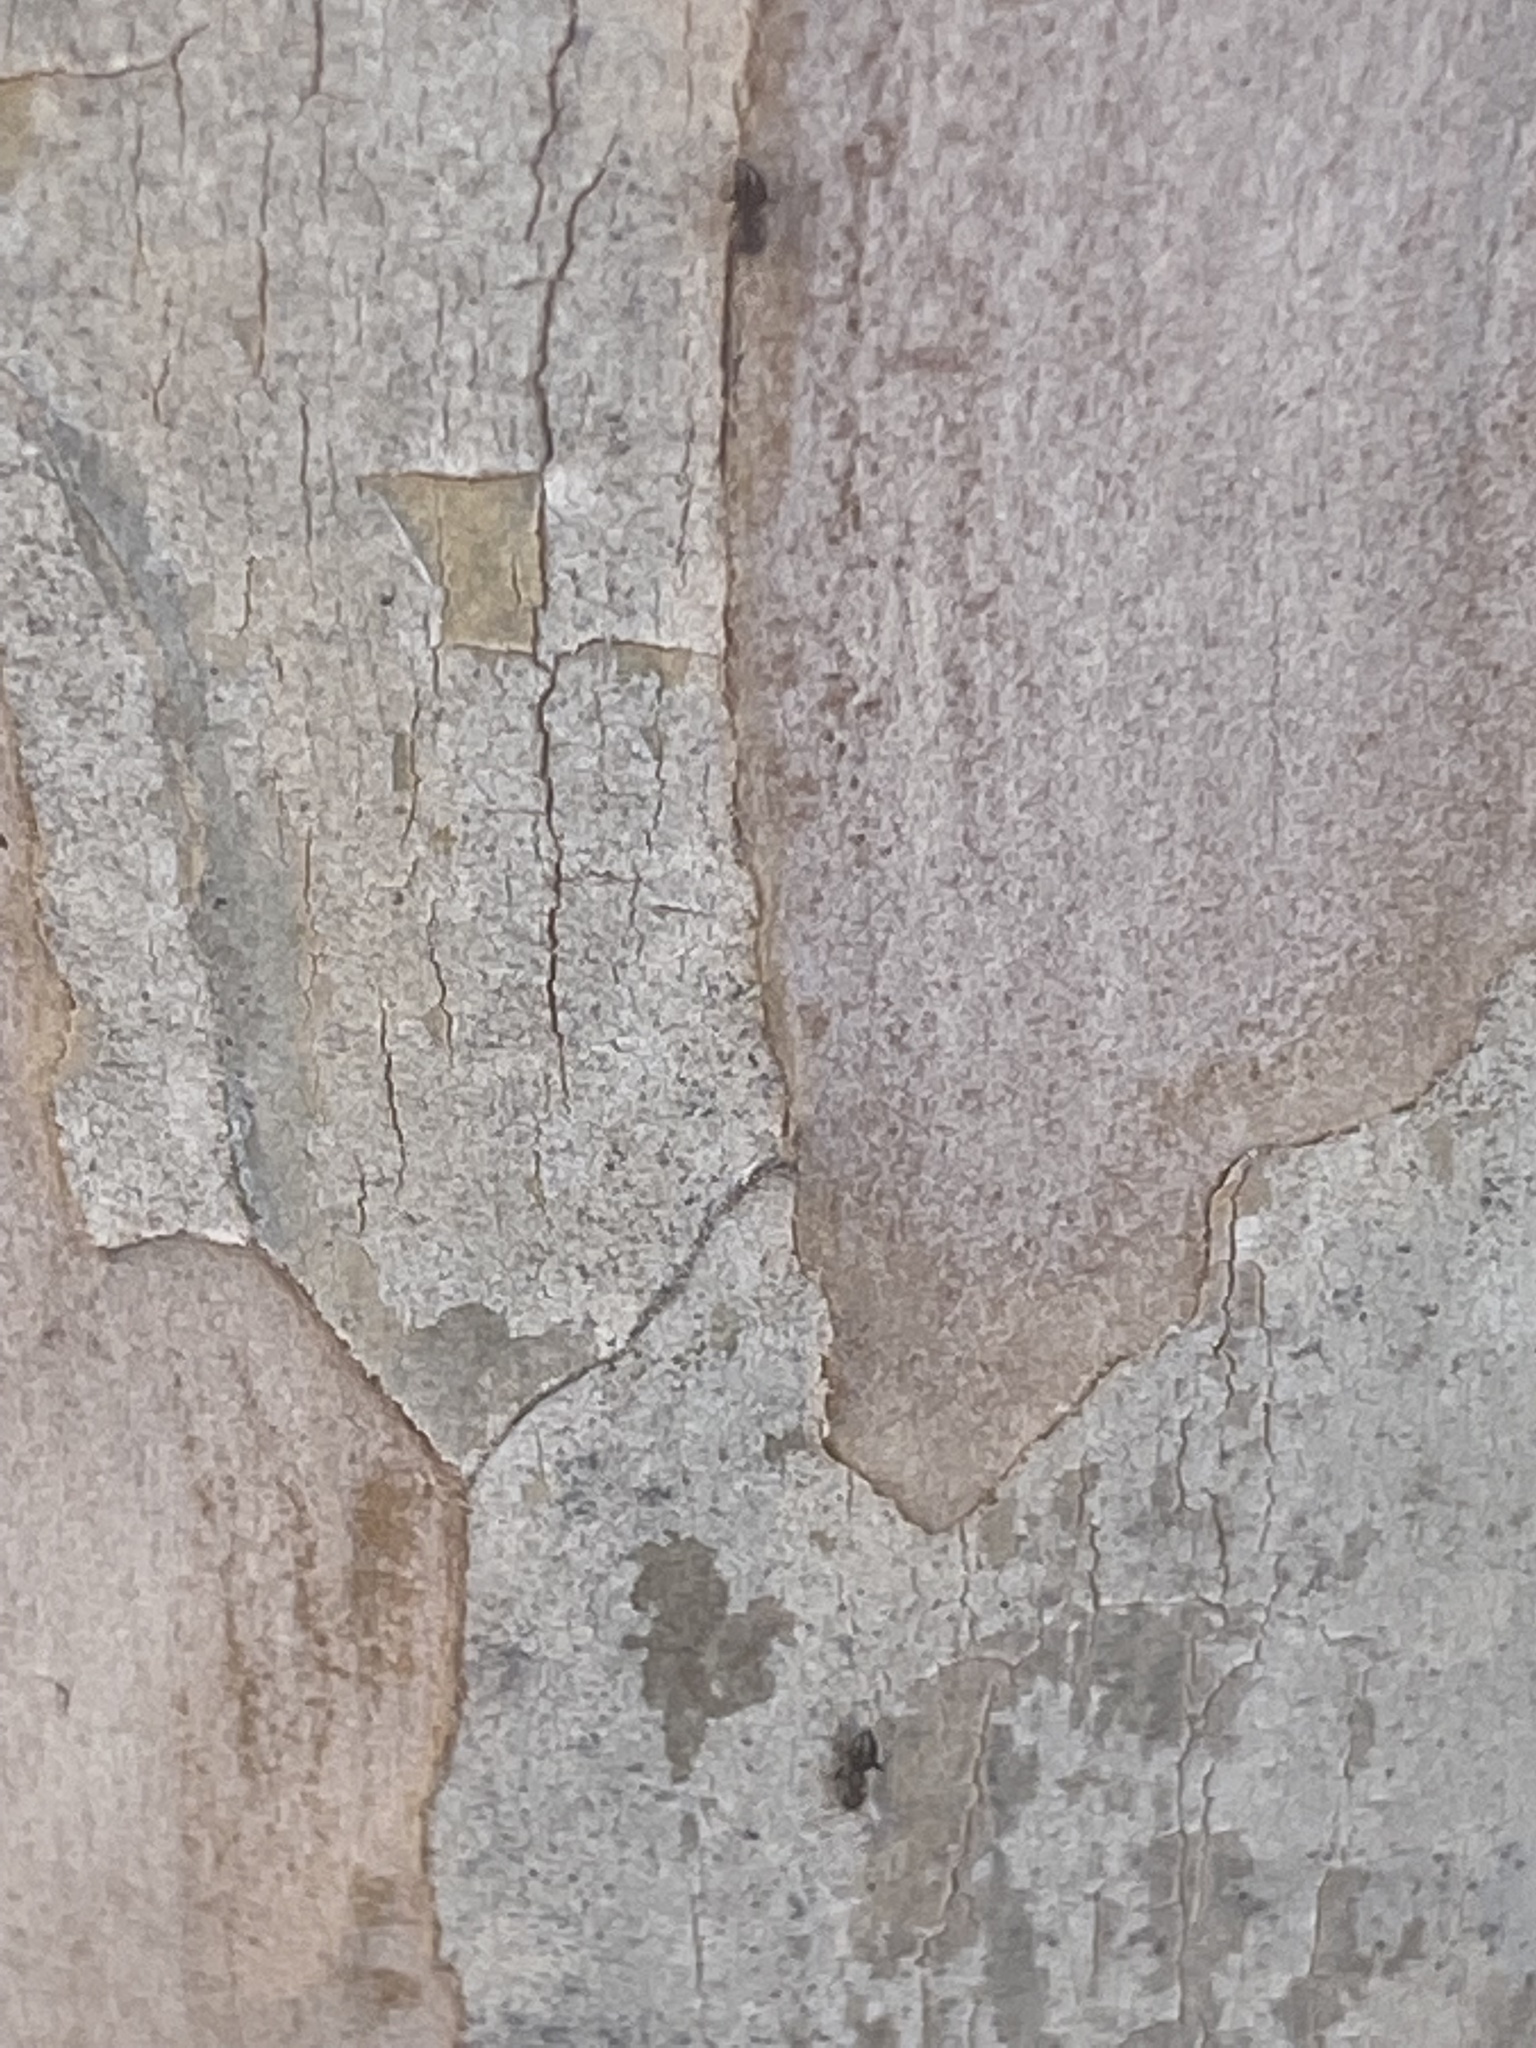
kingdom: Animalia
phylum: Arthropoda
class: Insecta
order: Hymenoptera
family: Formicidae
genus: Brachymyrmex
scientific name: Brachymyrmex patagonicus
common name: Dark rover ant
